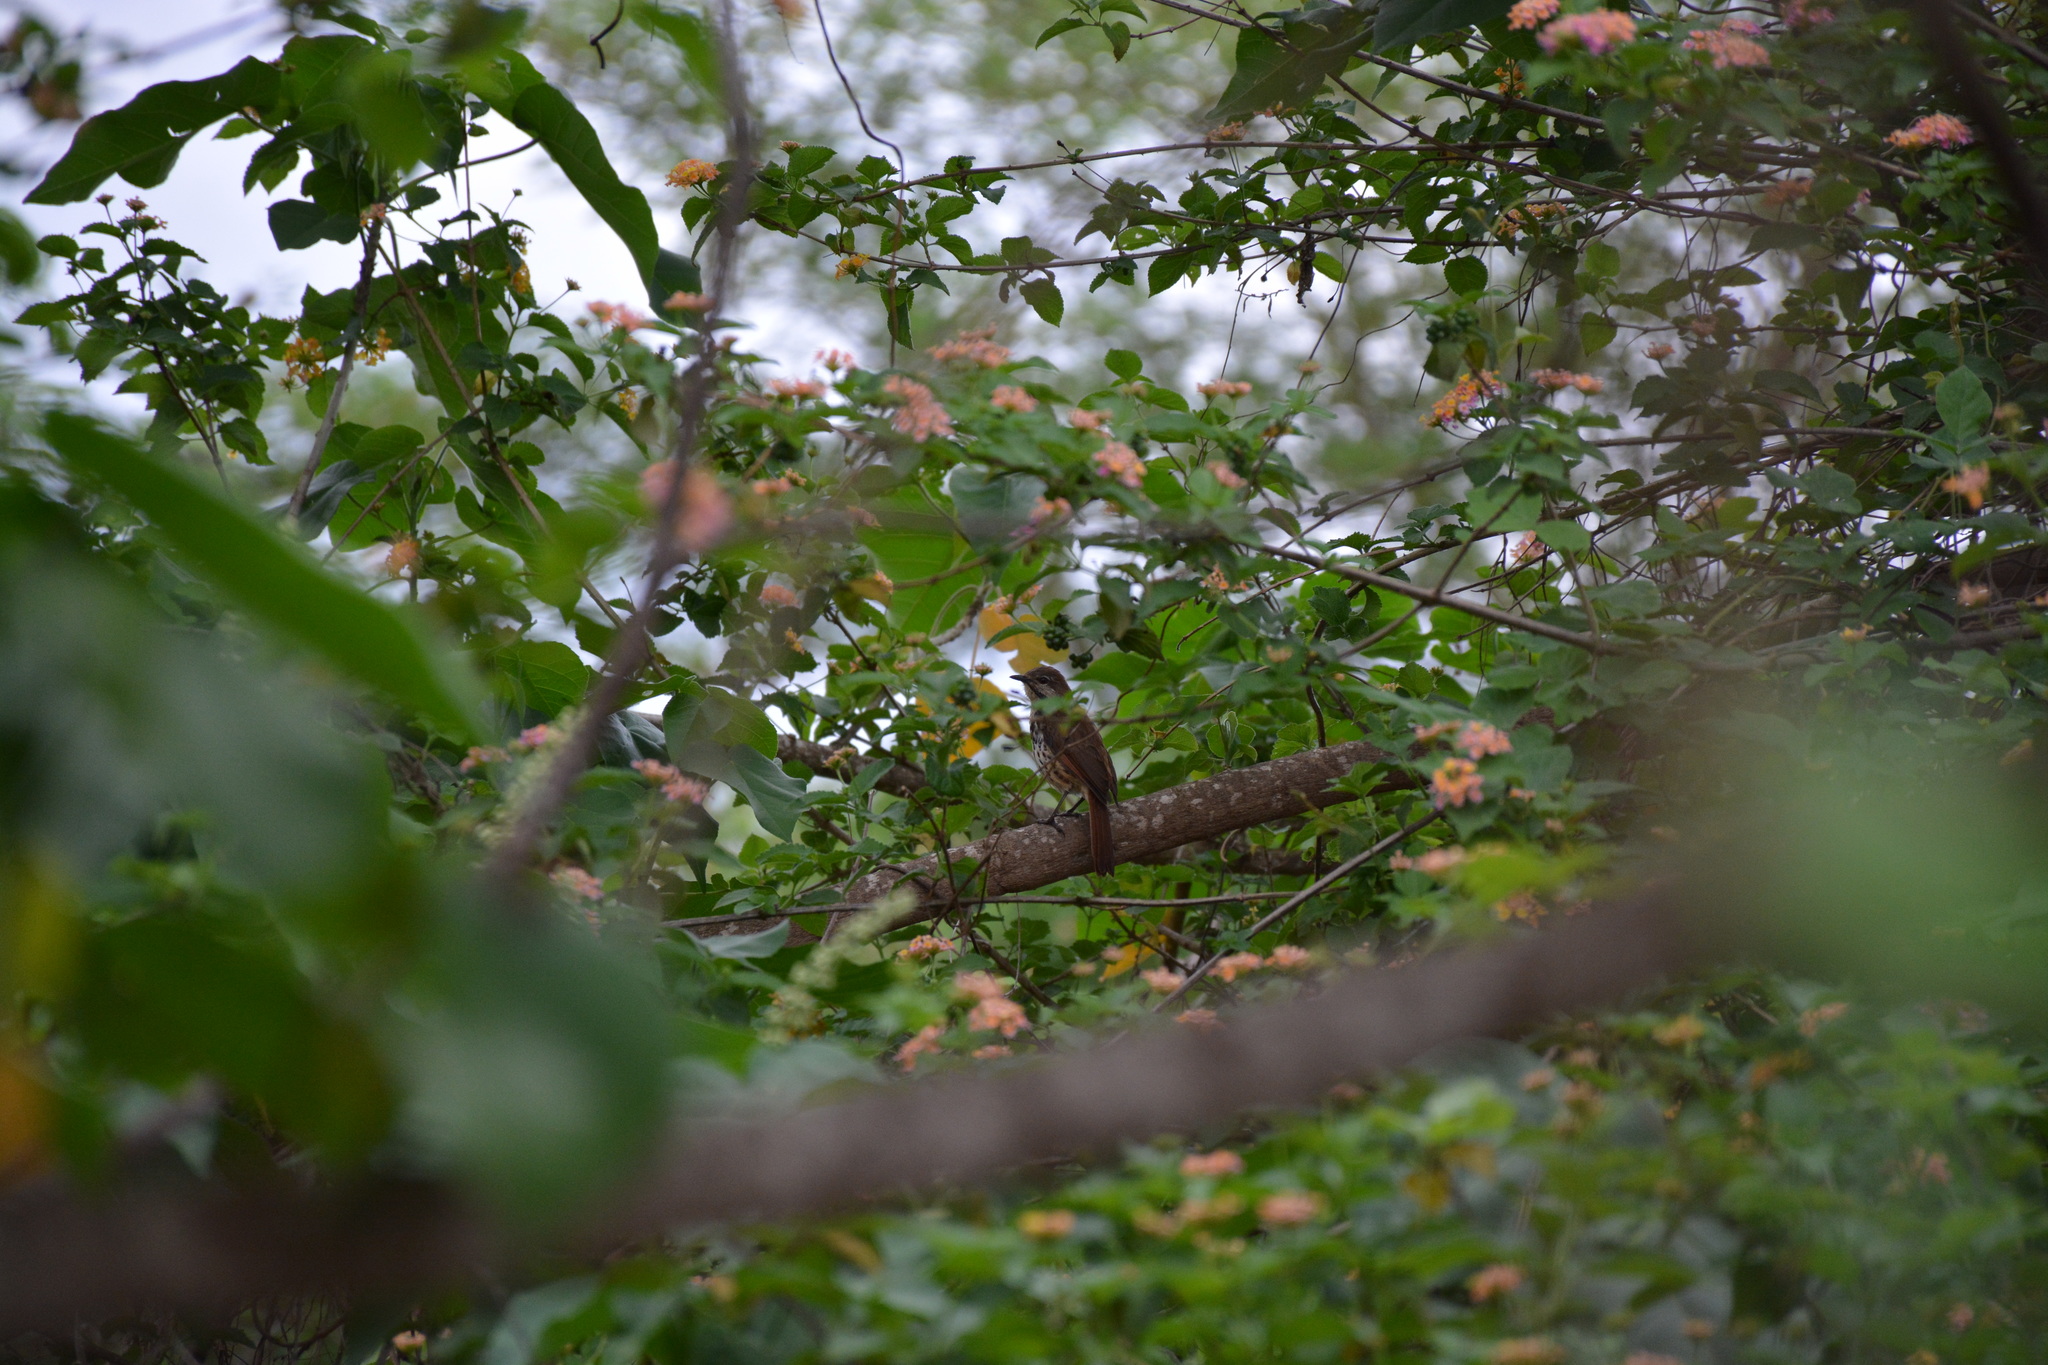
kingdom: Animalia
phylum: Chordata
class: Aves
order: Passeriformes
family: Muscicapidae
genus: Cichladusa
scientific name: Cichladusa guttata
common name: Spotted palm thrush
